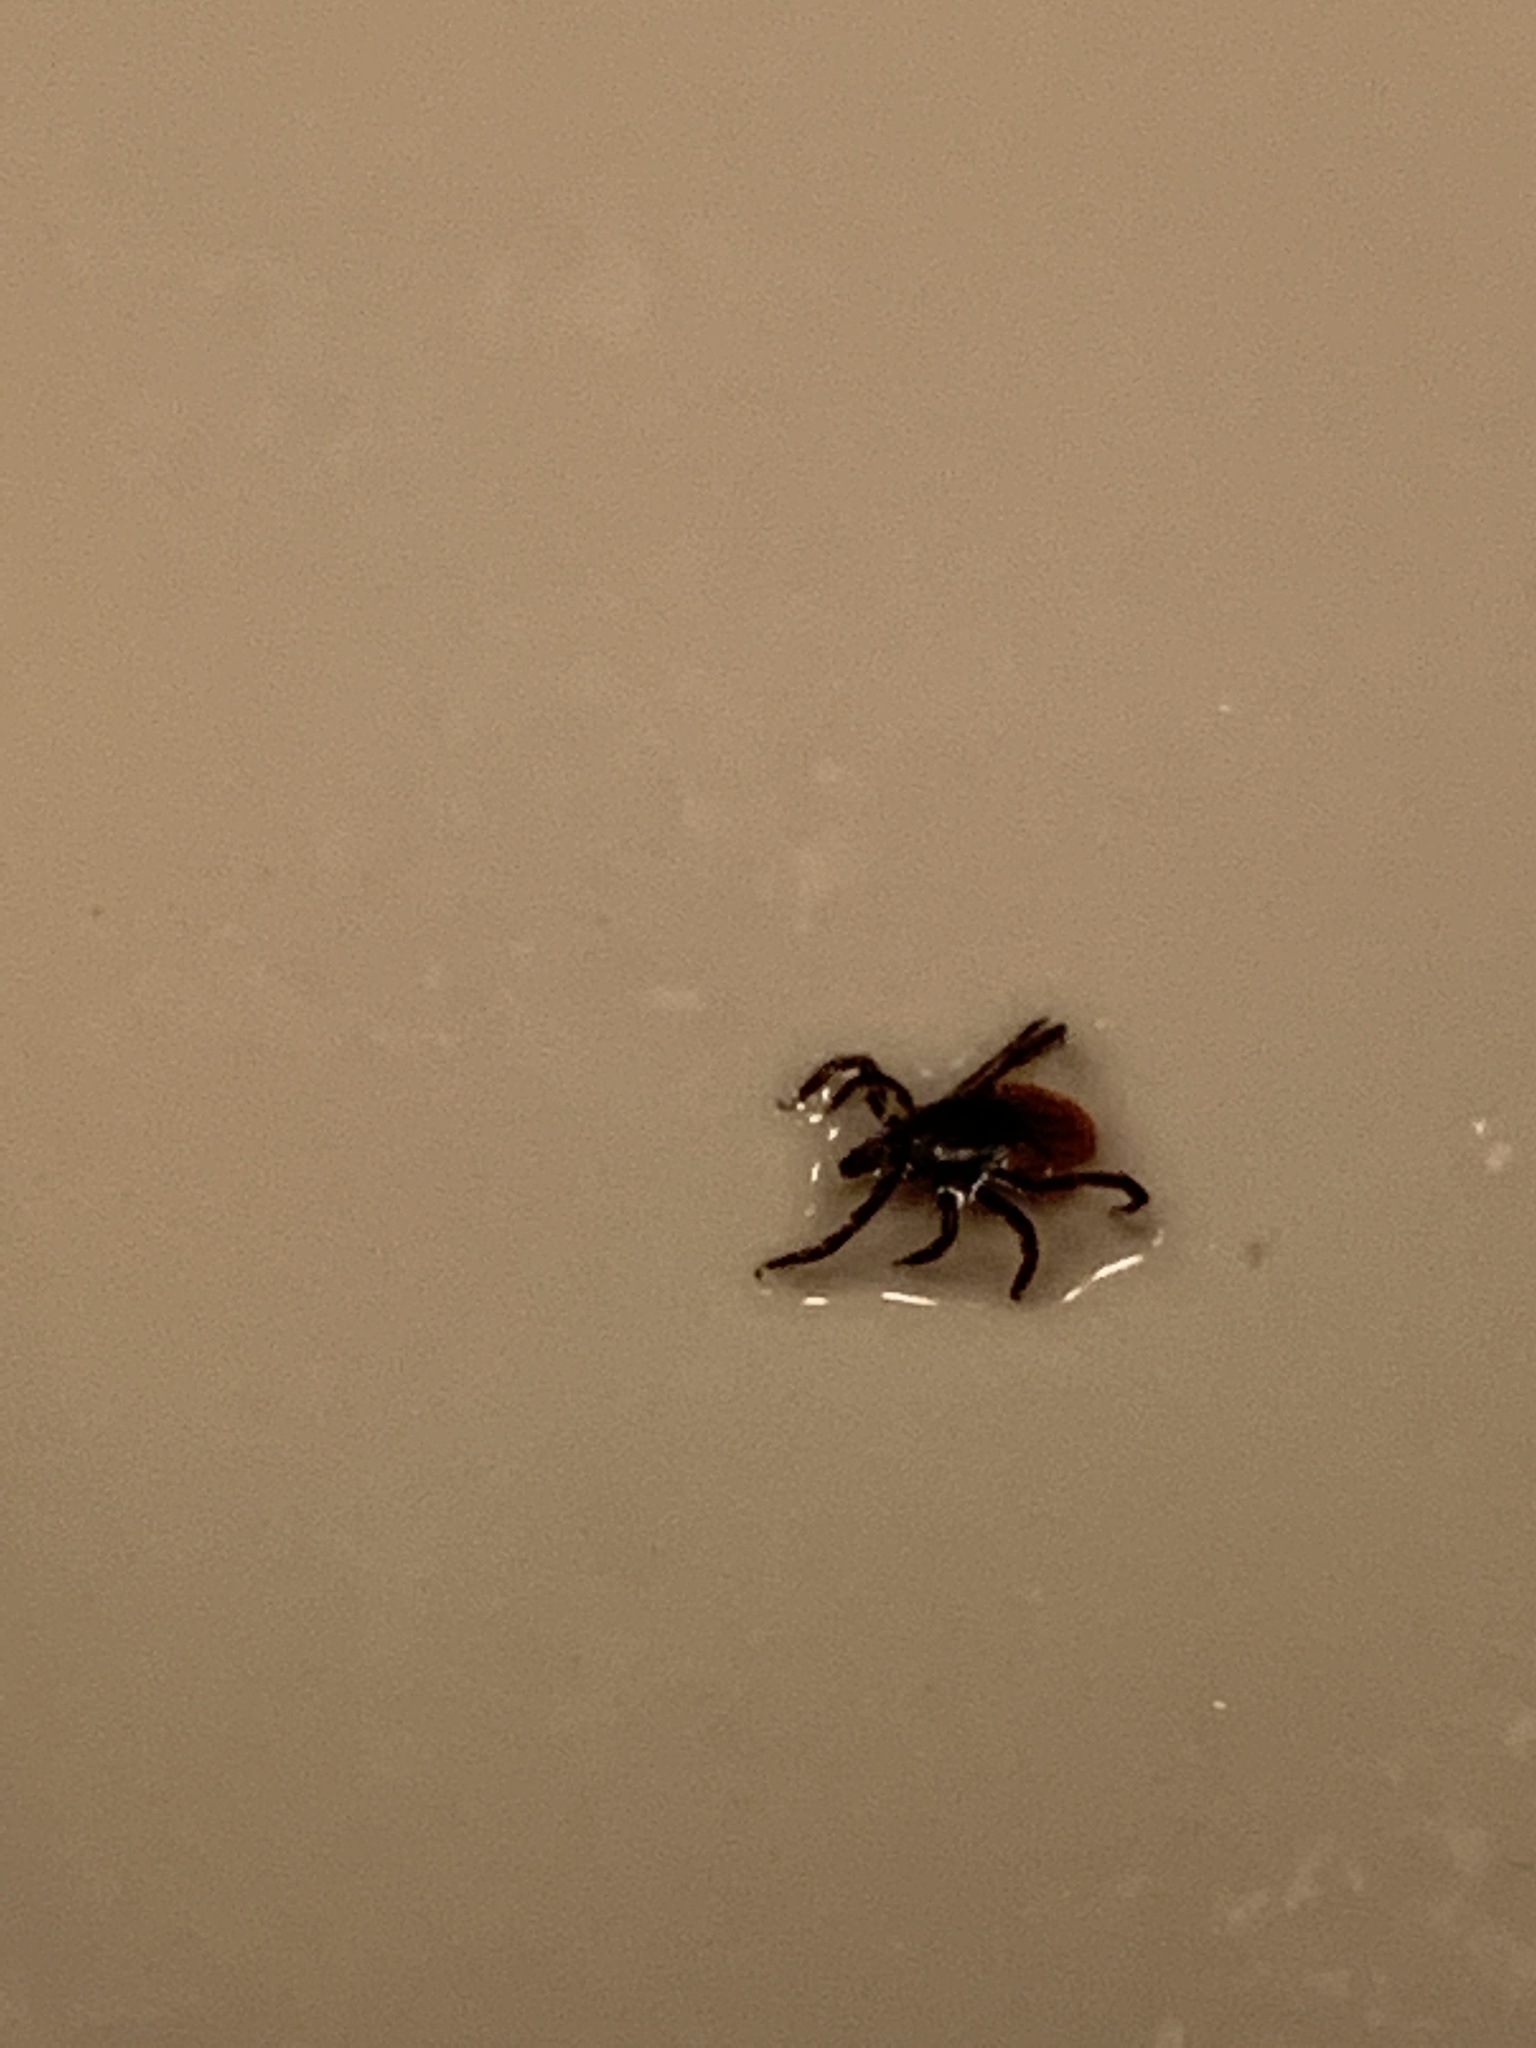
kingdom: Animalia
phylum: Arthropoda
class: Arachnida
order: Ixodida
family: Ixodidae
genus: Ixodes
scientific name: Ixodes scapularis
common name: Black legged tick
